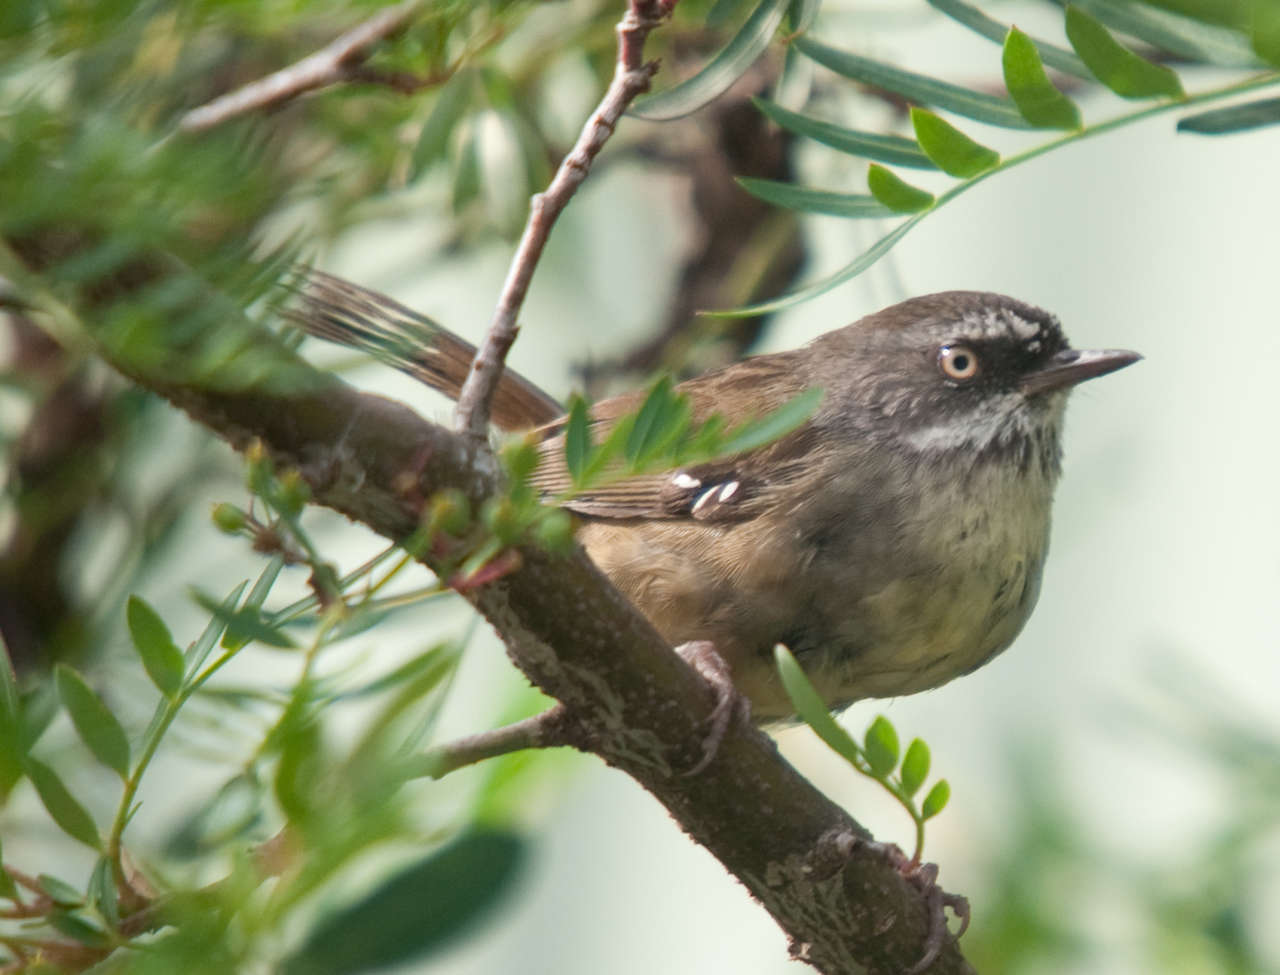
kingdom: Animalia
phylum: Chordata
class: Aves
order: Passeriformes
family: Acanthizidae
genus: Sericornis
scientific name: Sericornis frontalis
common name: White-browed scrubwren
